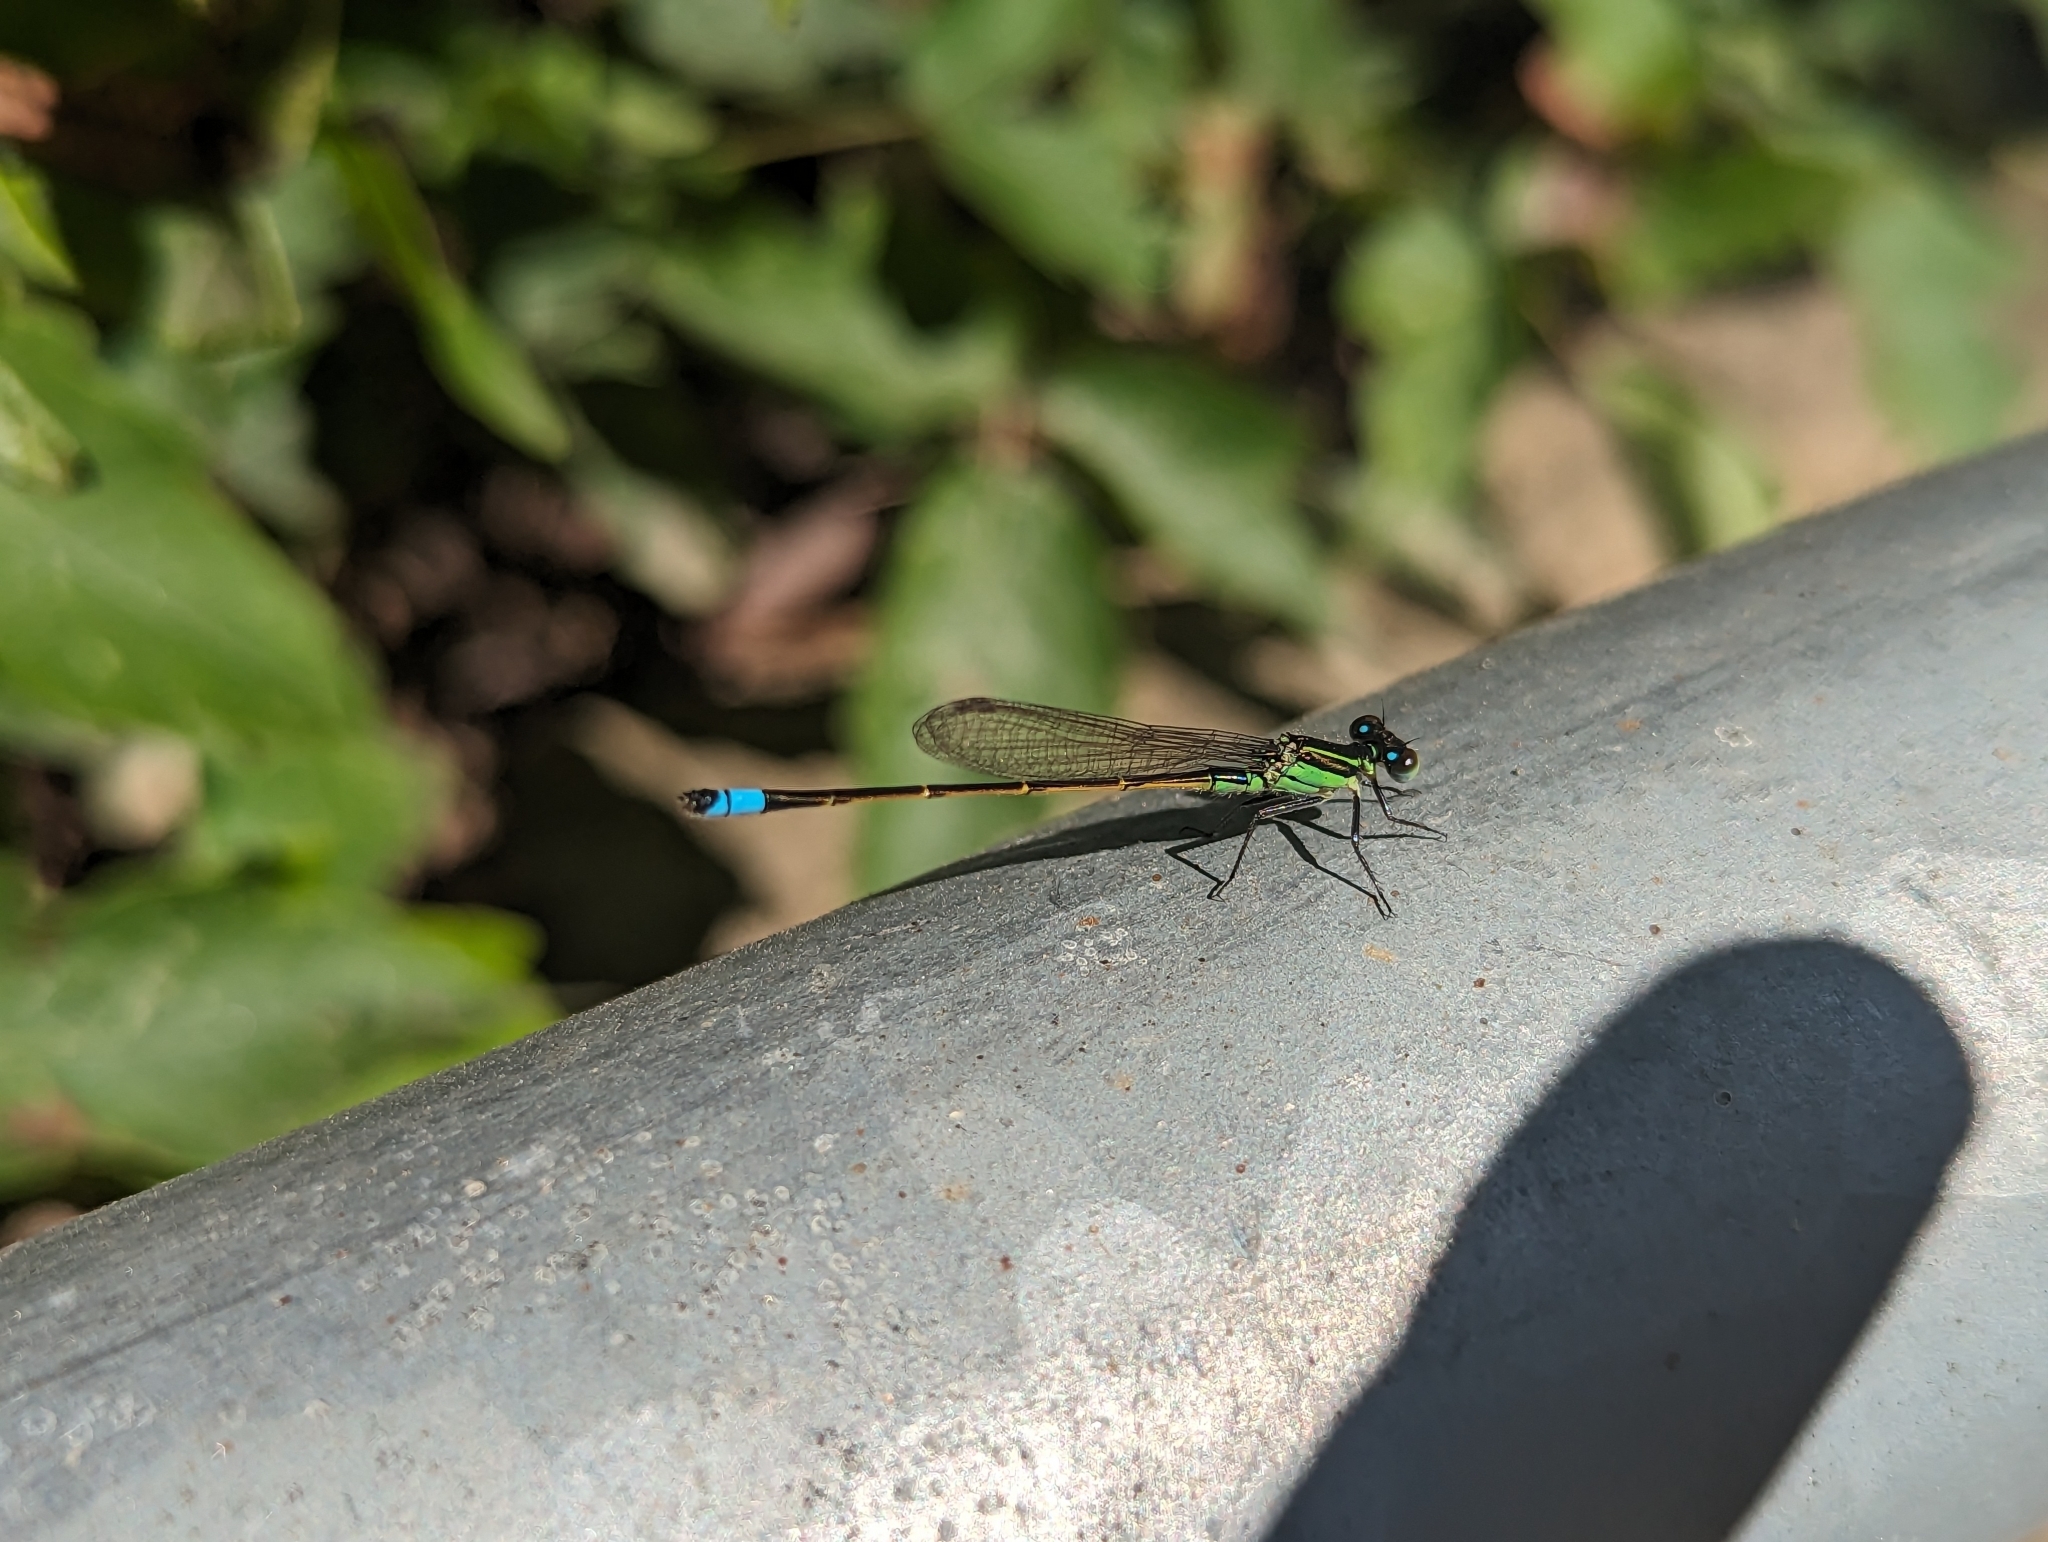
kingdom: Animalia
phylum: Arthropoda
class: Insecta
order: Odonata
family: Coenagrionidae
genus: Ischnura
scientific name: Ischnura ramburii
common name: Rambur's forktail
